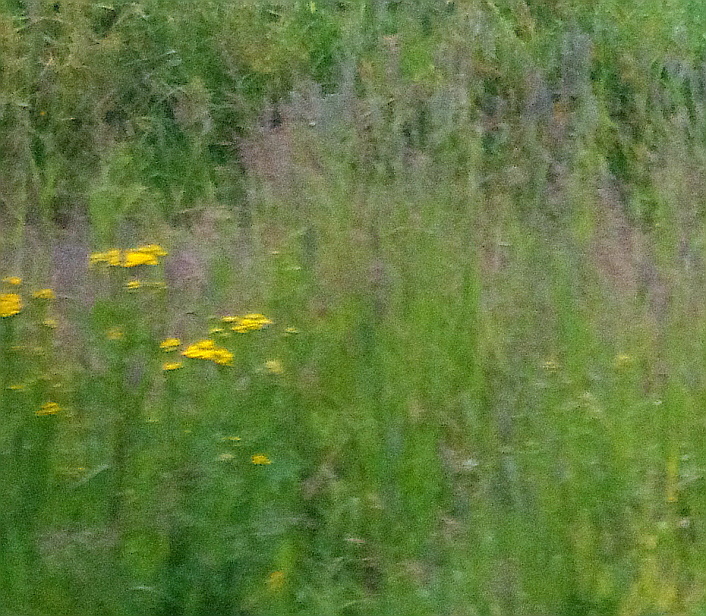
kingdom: Plantae
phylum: Tracheophyta
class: Magnoliopsida
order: Asterales
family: Asteraceae
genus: Tanacetum
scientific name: Tanacetum vulgare
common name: Common tansy
